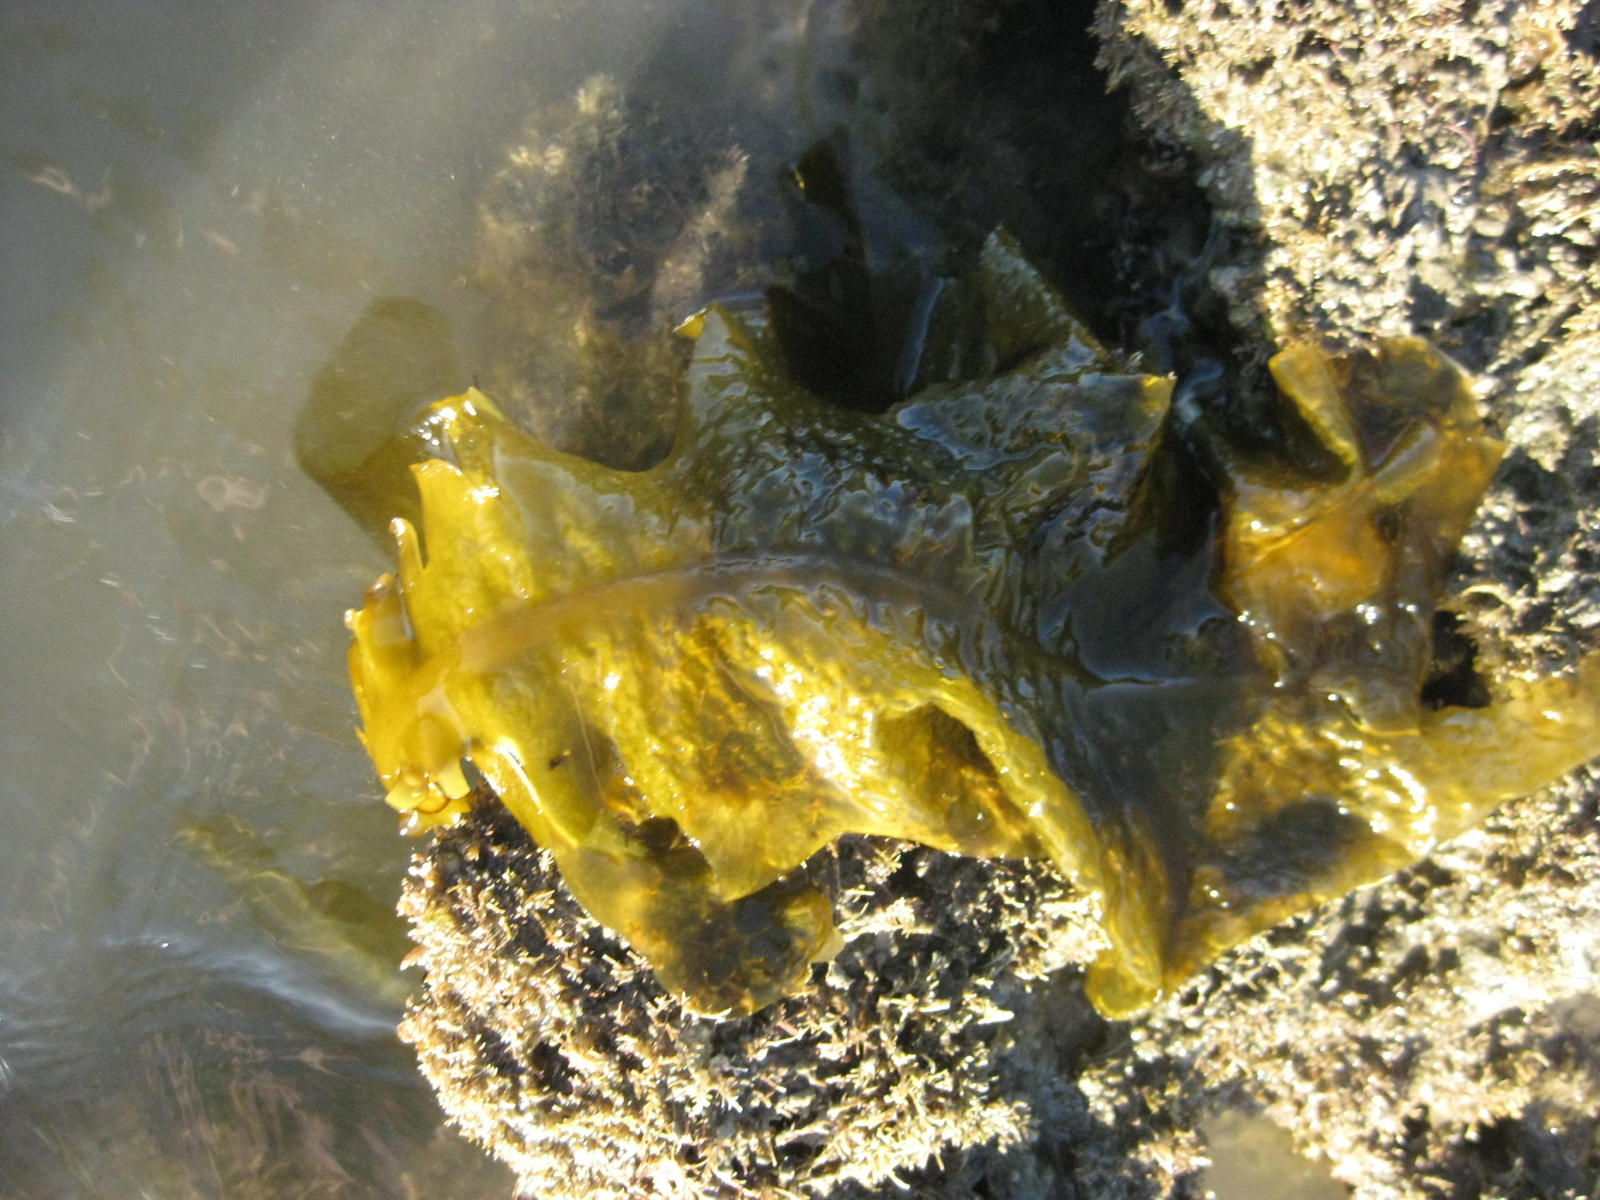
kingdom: Chromista
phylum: Ochrophyta
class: Phaeophyceae
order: Laminariales
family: Alariaceae
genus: Undaria
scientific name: Undaria pinnatifida
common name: Asian kelp
